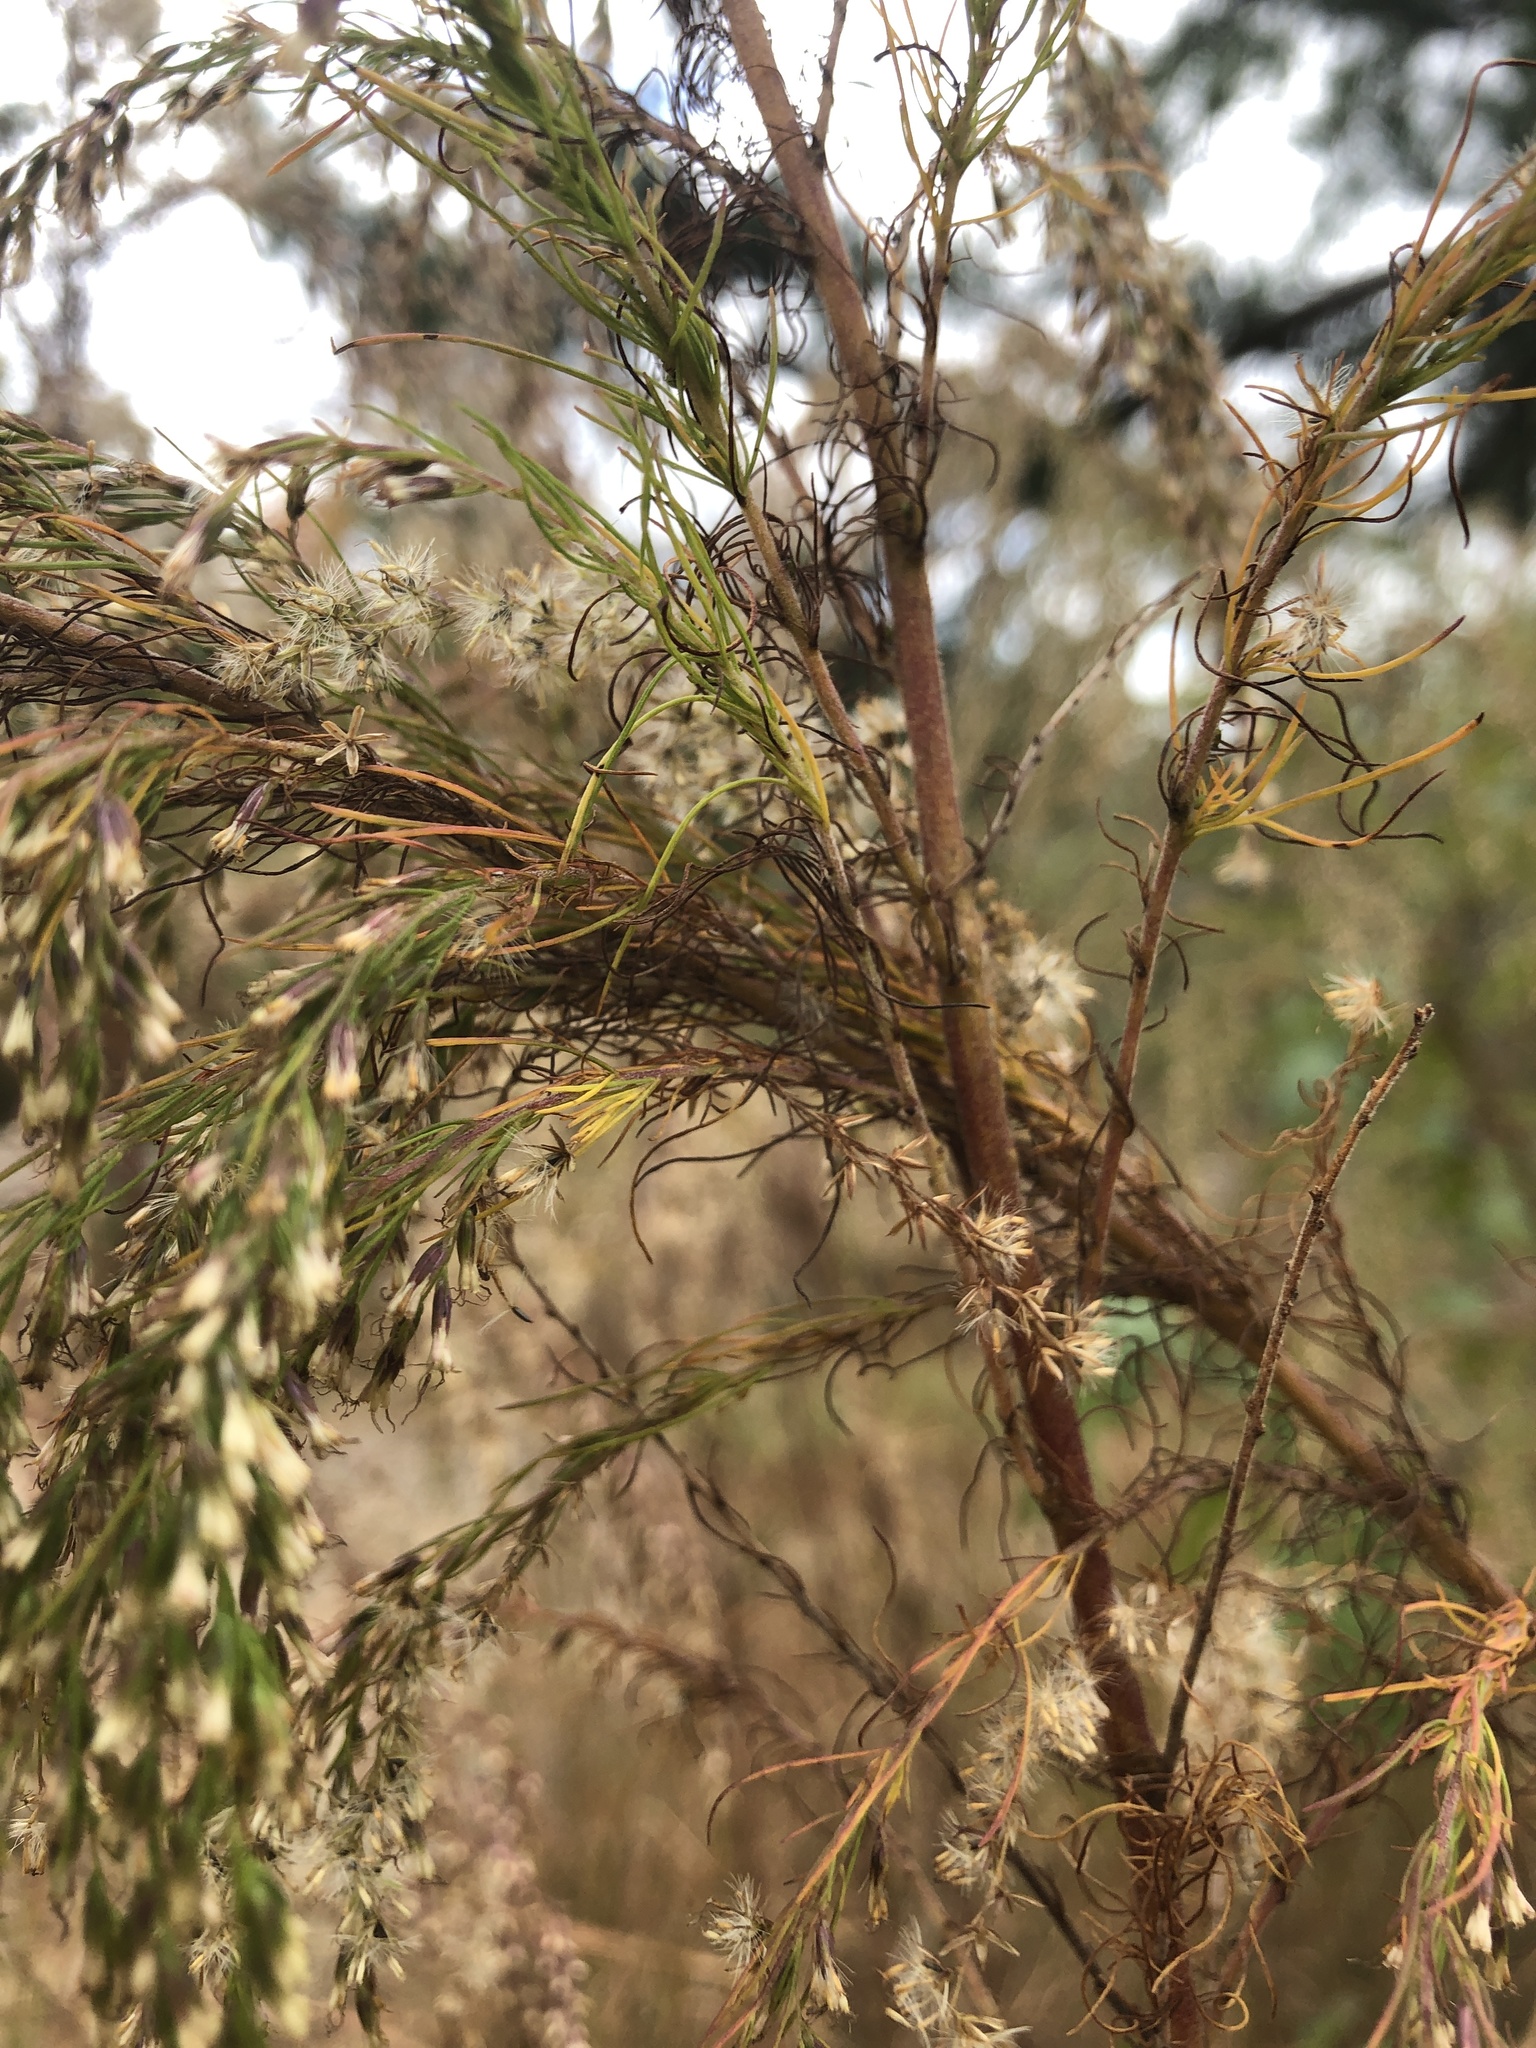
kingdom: Plantae
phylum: Tracheophyta
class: Magnoliopsida
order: Asterales
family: Asteraceae
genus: Eupatorium
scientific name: Eupatorium capillifolium
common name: Dog-fennel
